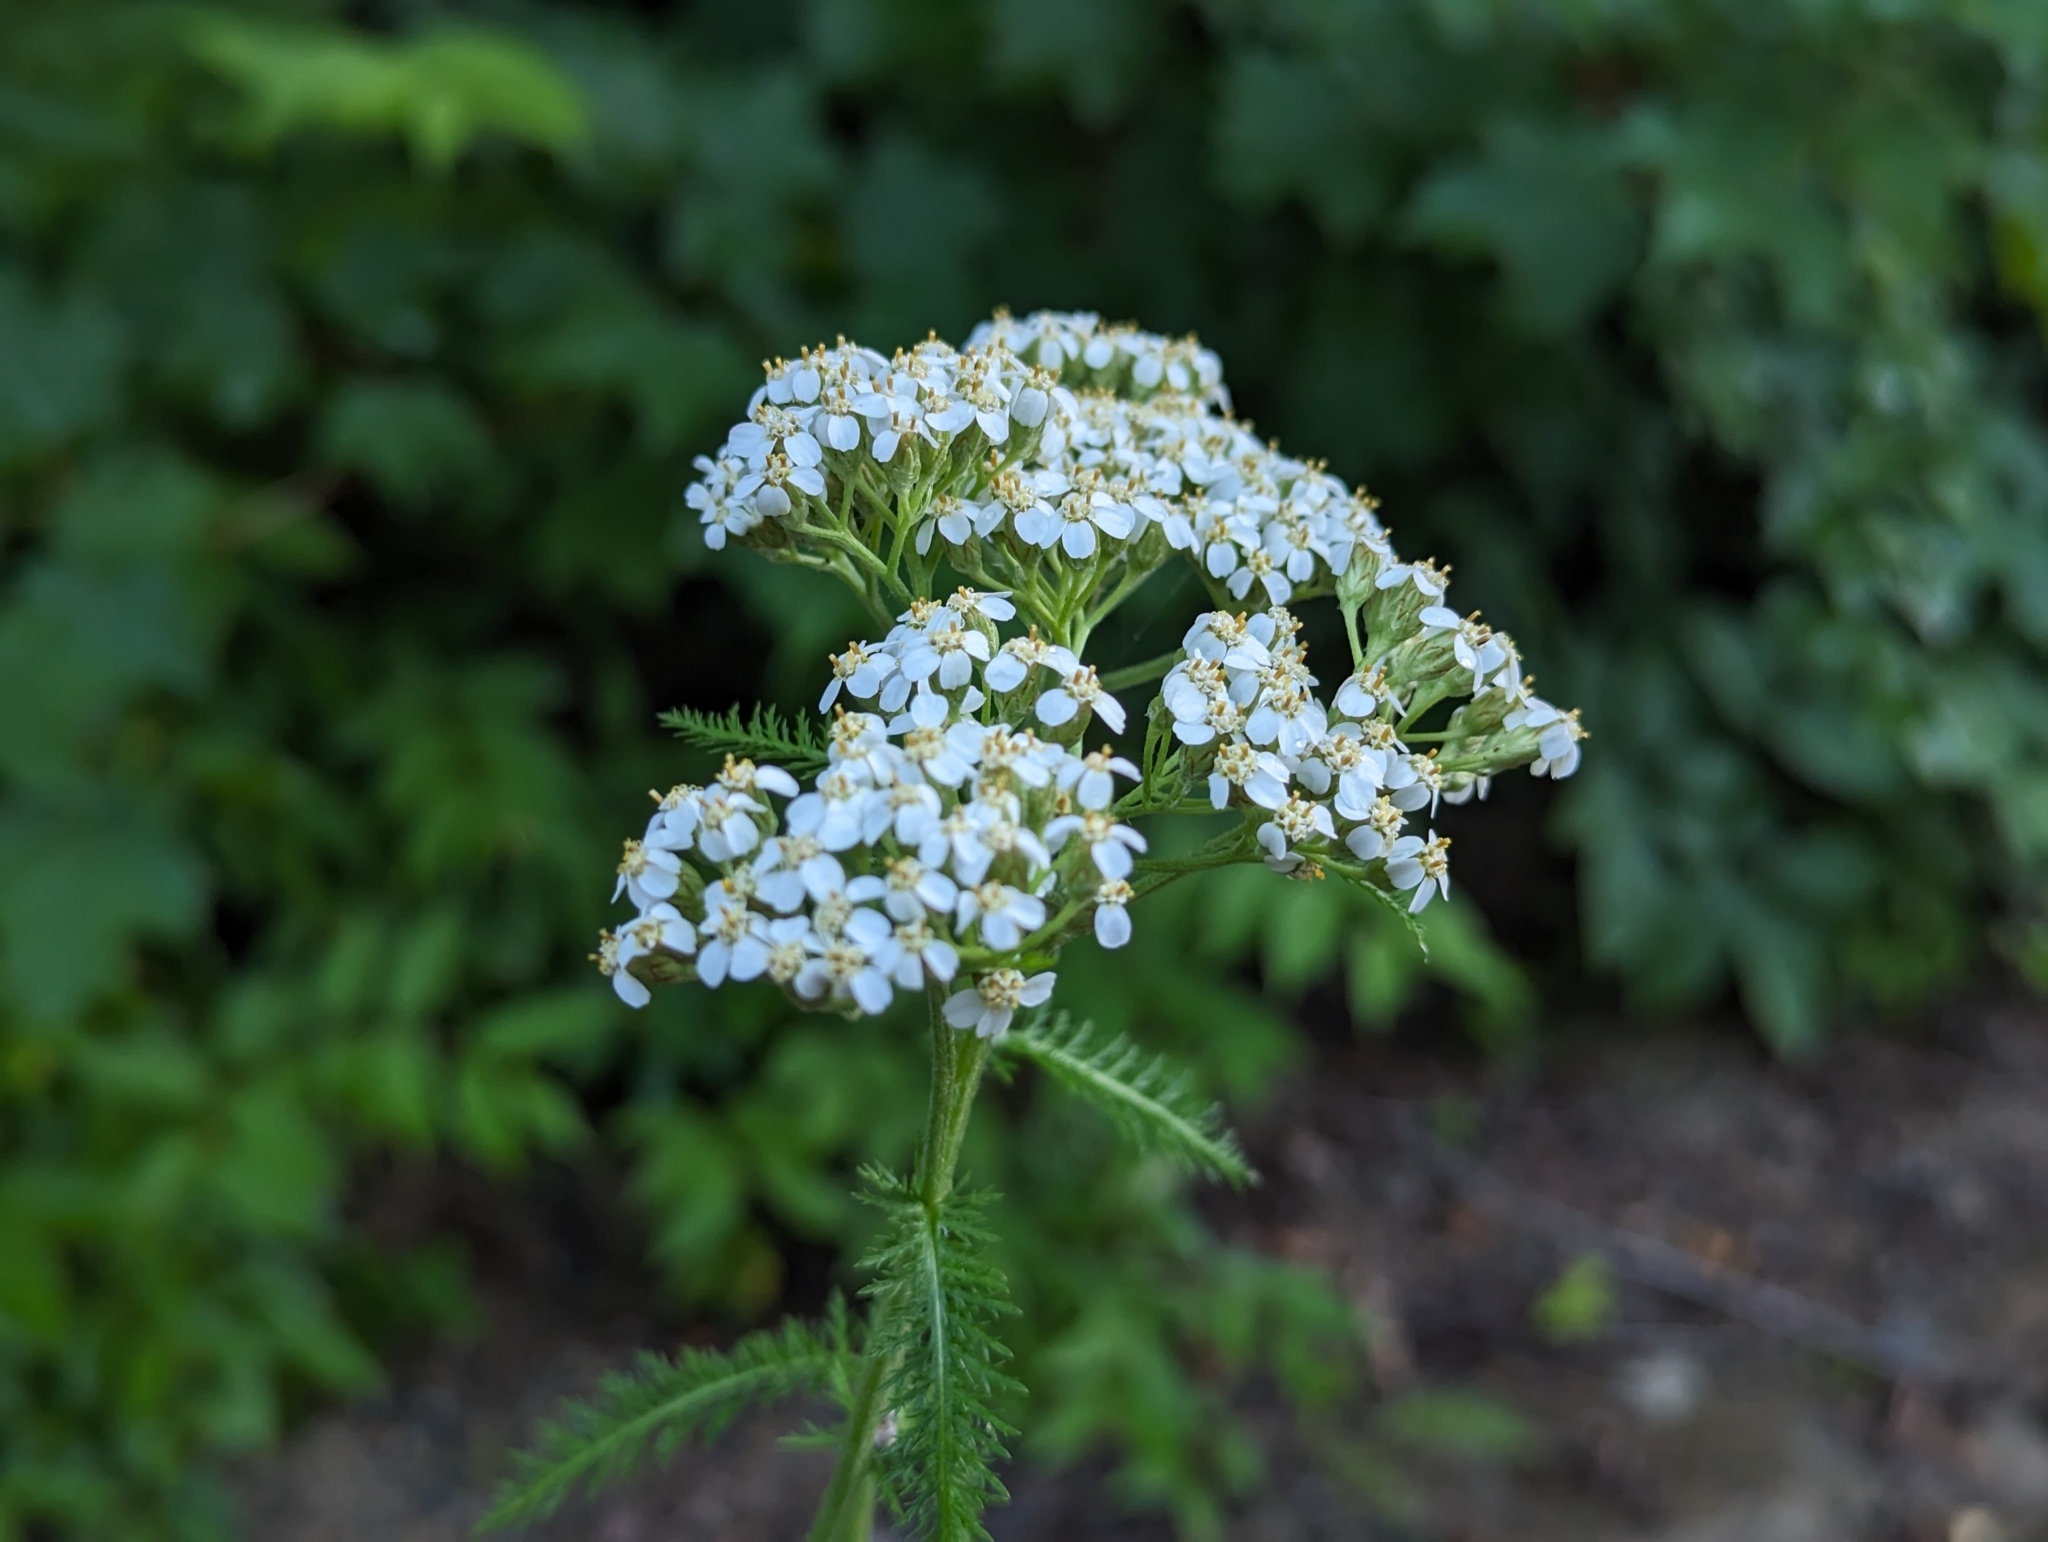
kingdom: Plantae
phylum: Tracheophyta
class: Magnoliopsida
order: Asterales
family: Asteraceae
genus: Achillea
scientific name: Achillea millefolium
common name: Yarrow
